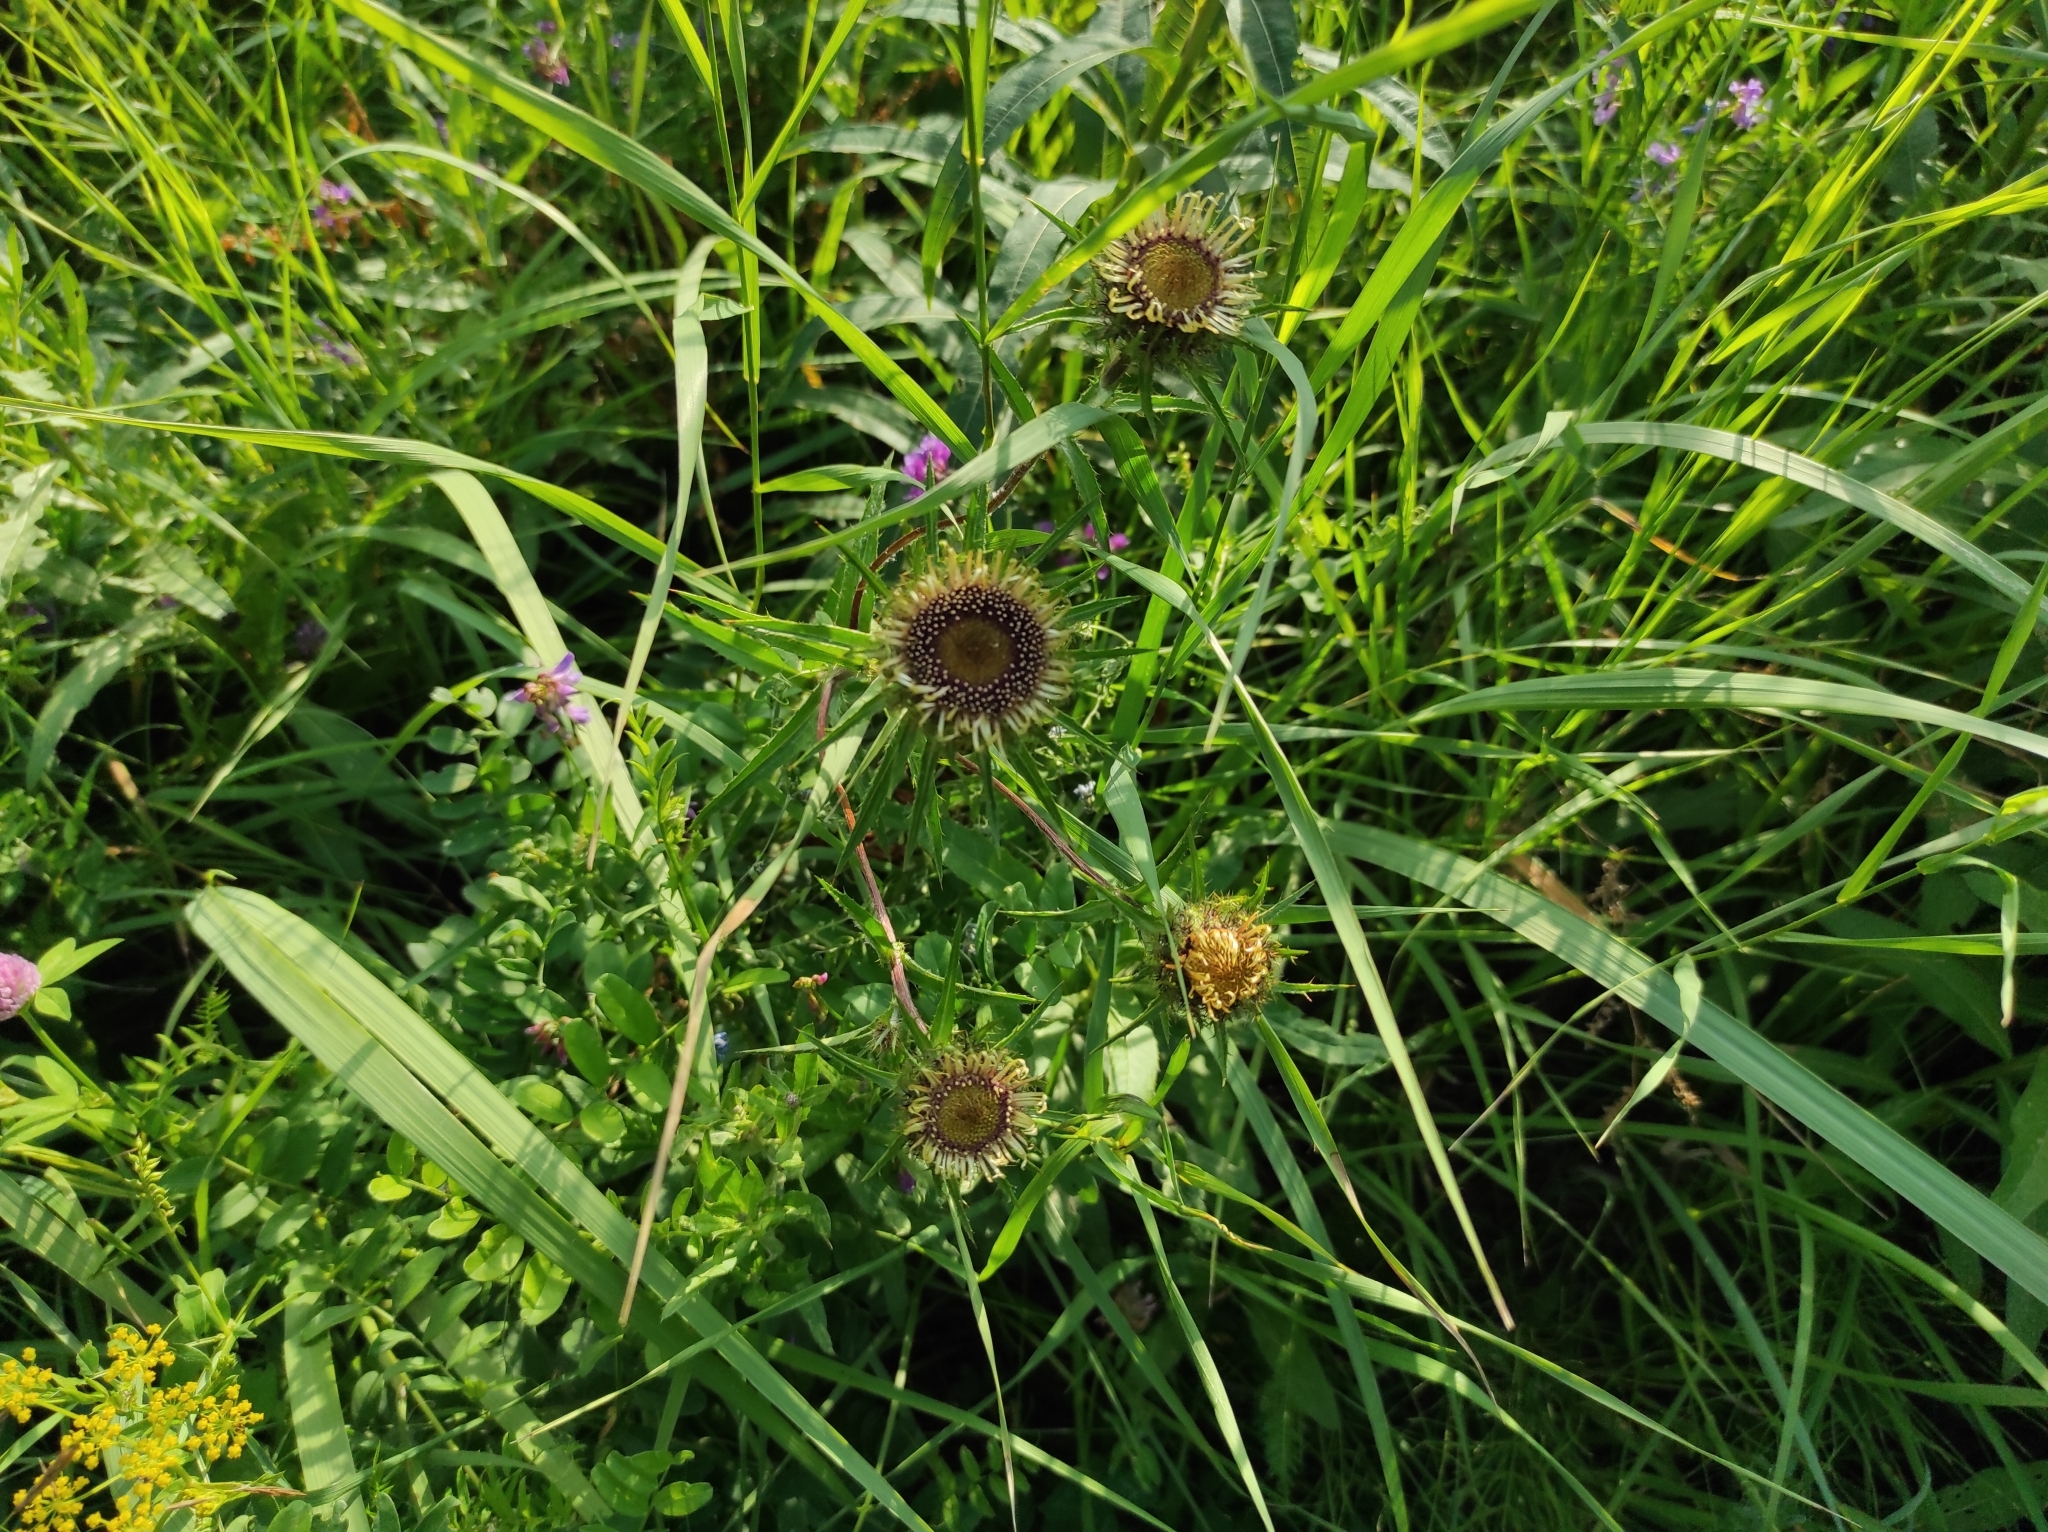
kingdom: Plantae
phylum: Tracheophyta
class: Magnoliopsida
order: Asterales
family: Asteraceae
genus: Carlina
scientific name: Carlina biebersteinii
